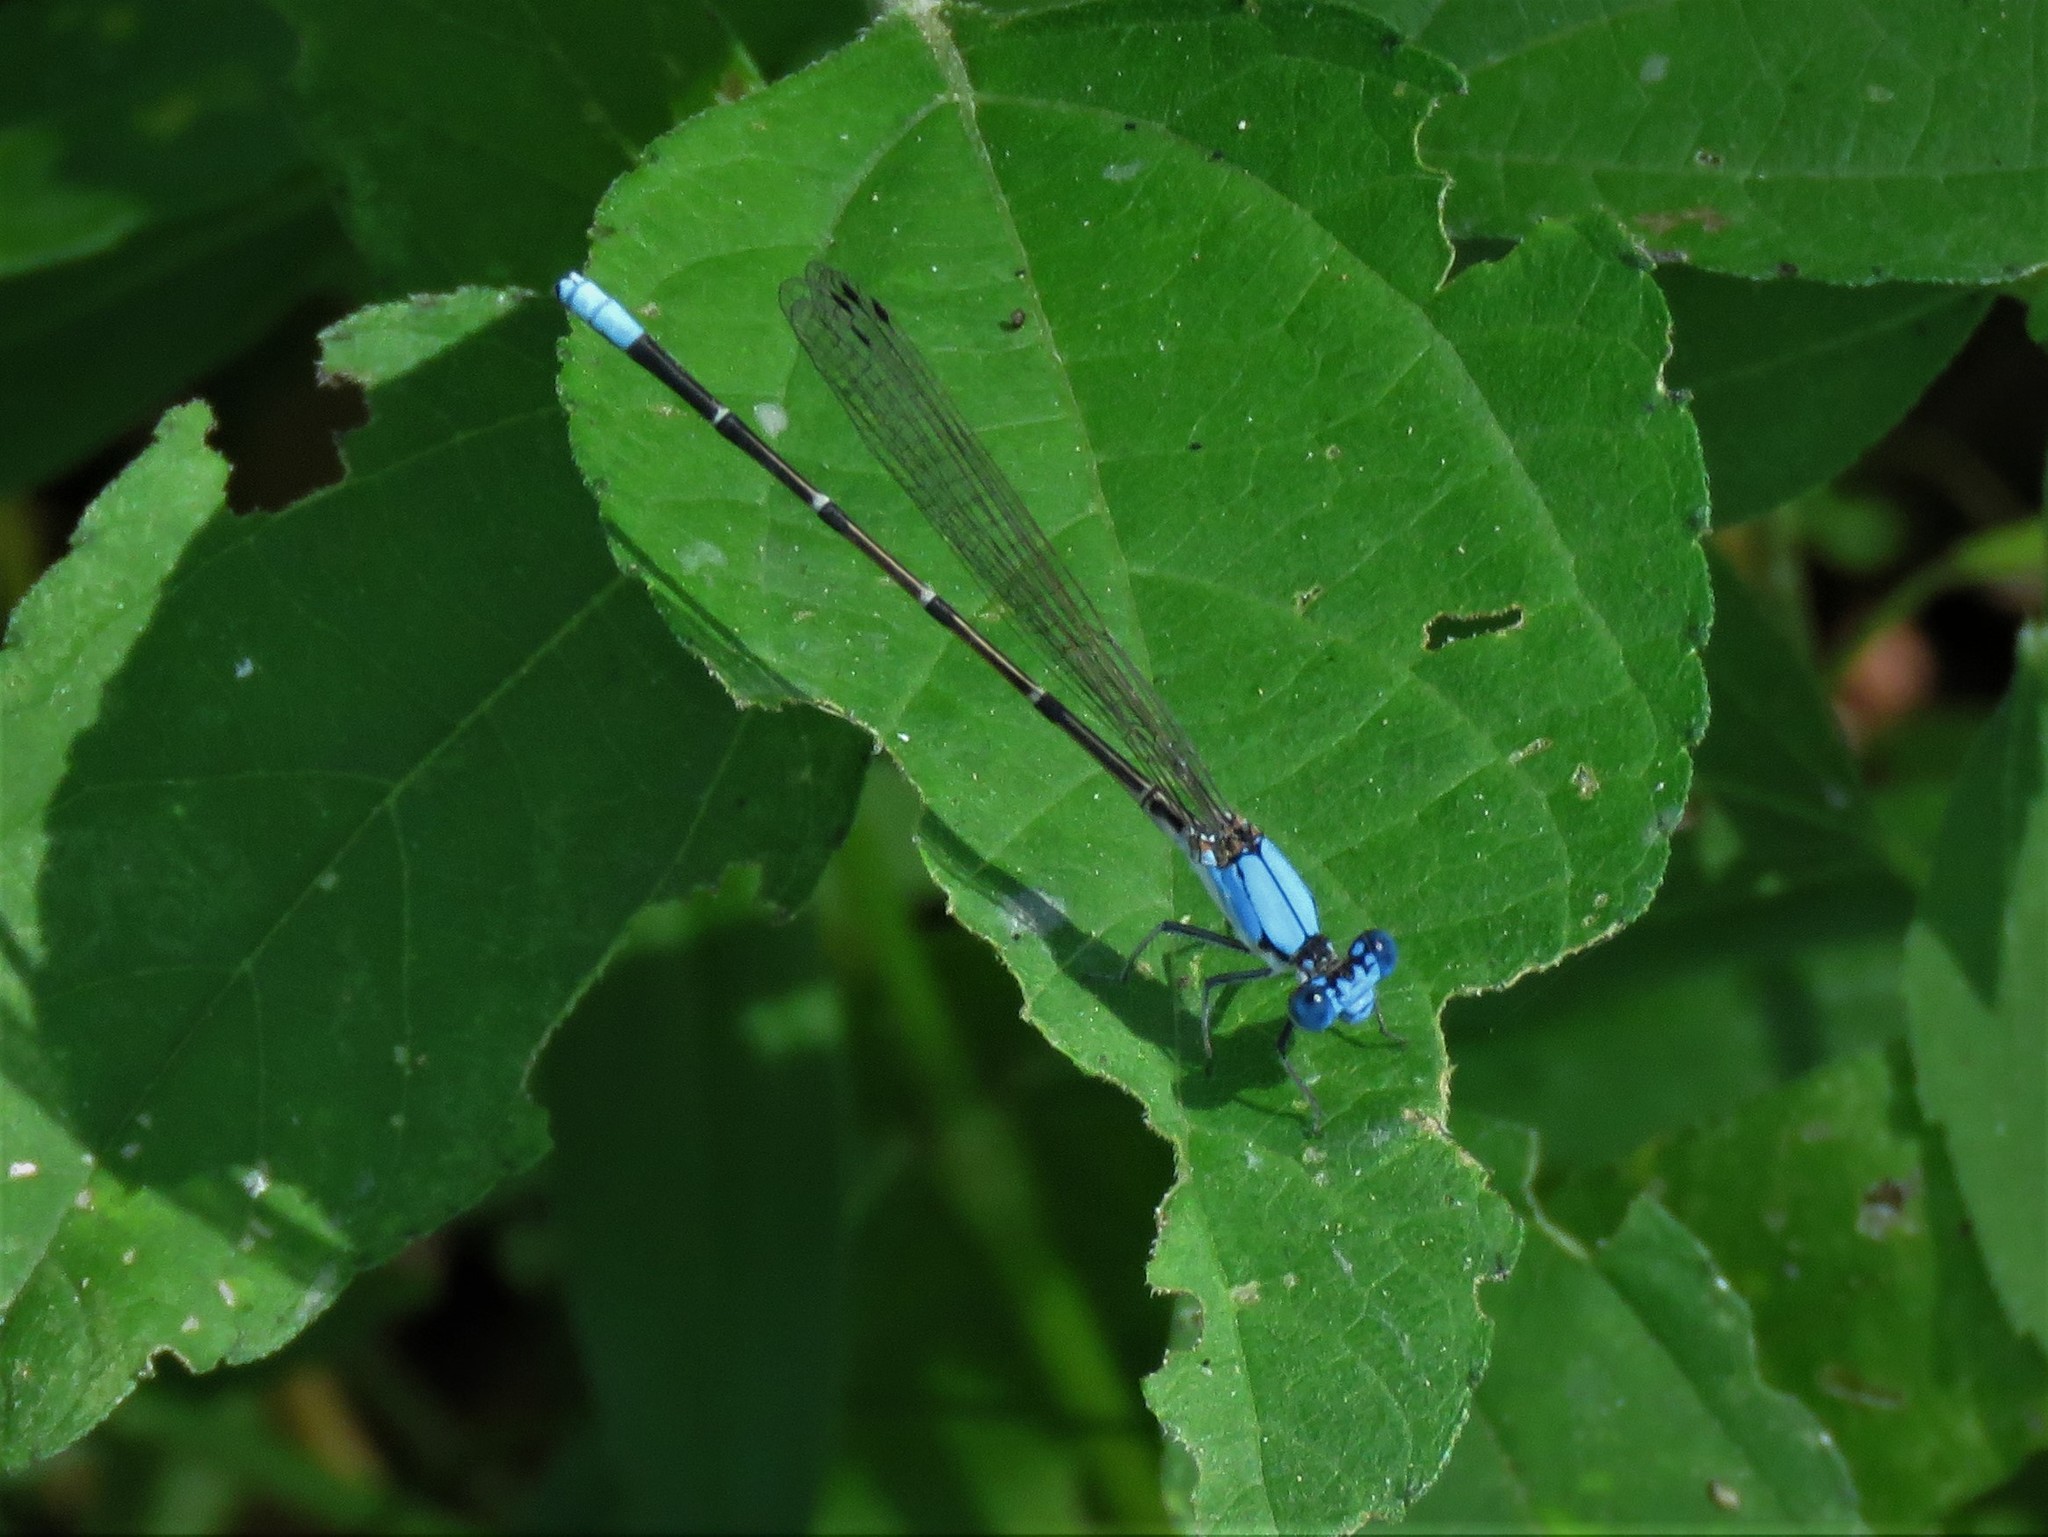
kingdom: Animalia
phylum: Arthropoda
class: Insecta
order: Odonata
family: Coenagrionidae
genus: Argia
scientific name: Argia apicalis
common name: Blue-fronted dancer
